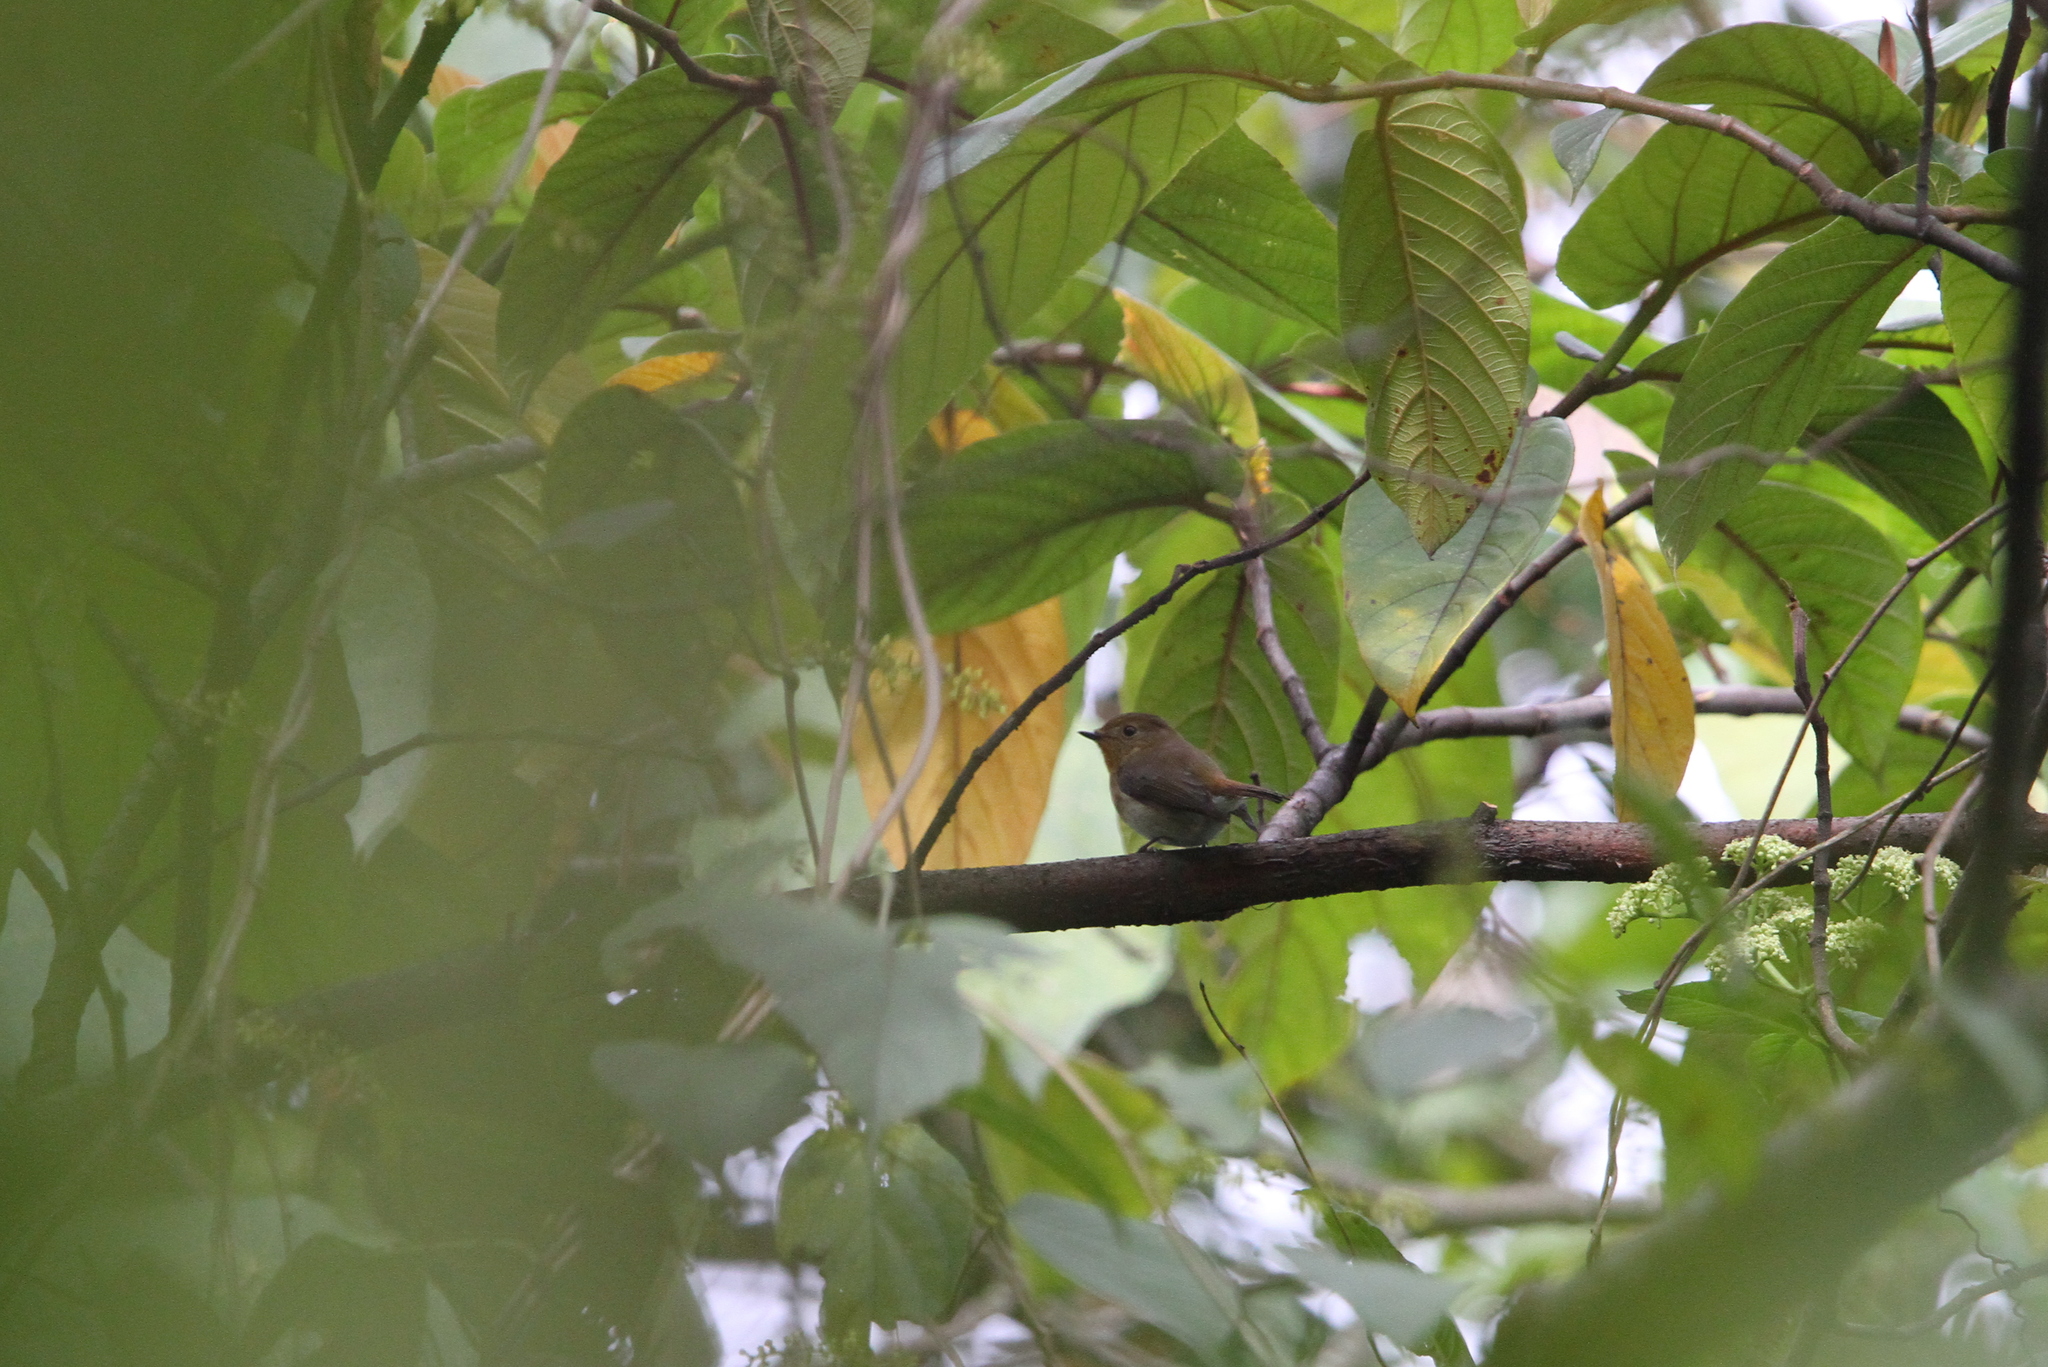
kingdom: Animalia
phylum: Chordata
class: Aves
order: Passeriformes
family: Muscicapidae
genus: Ficedula
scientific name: Ficedula sapphira
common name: Sapphire flycatcher
